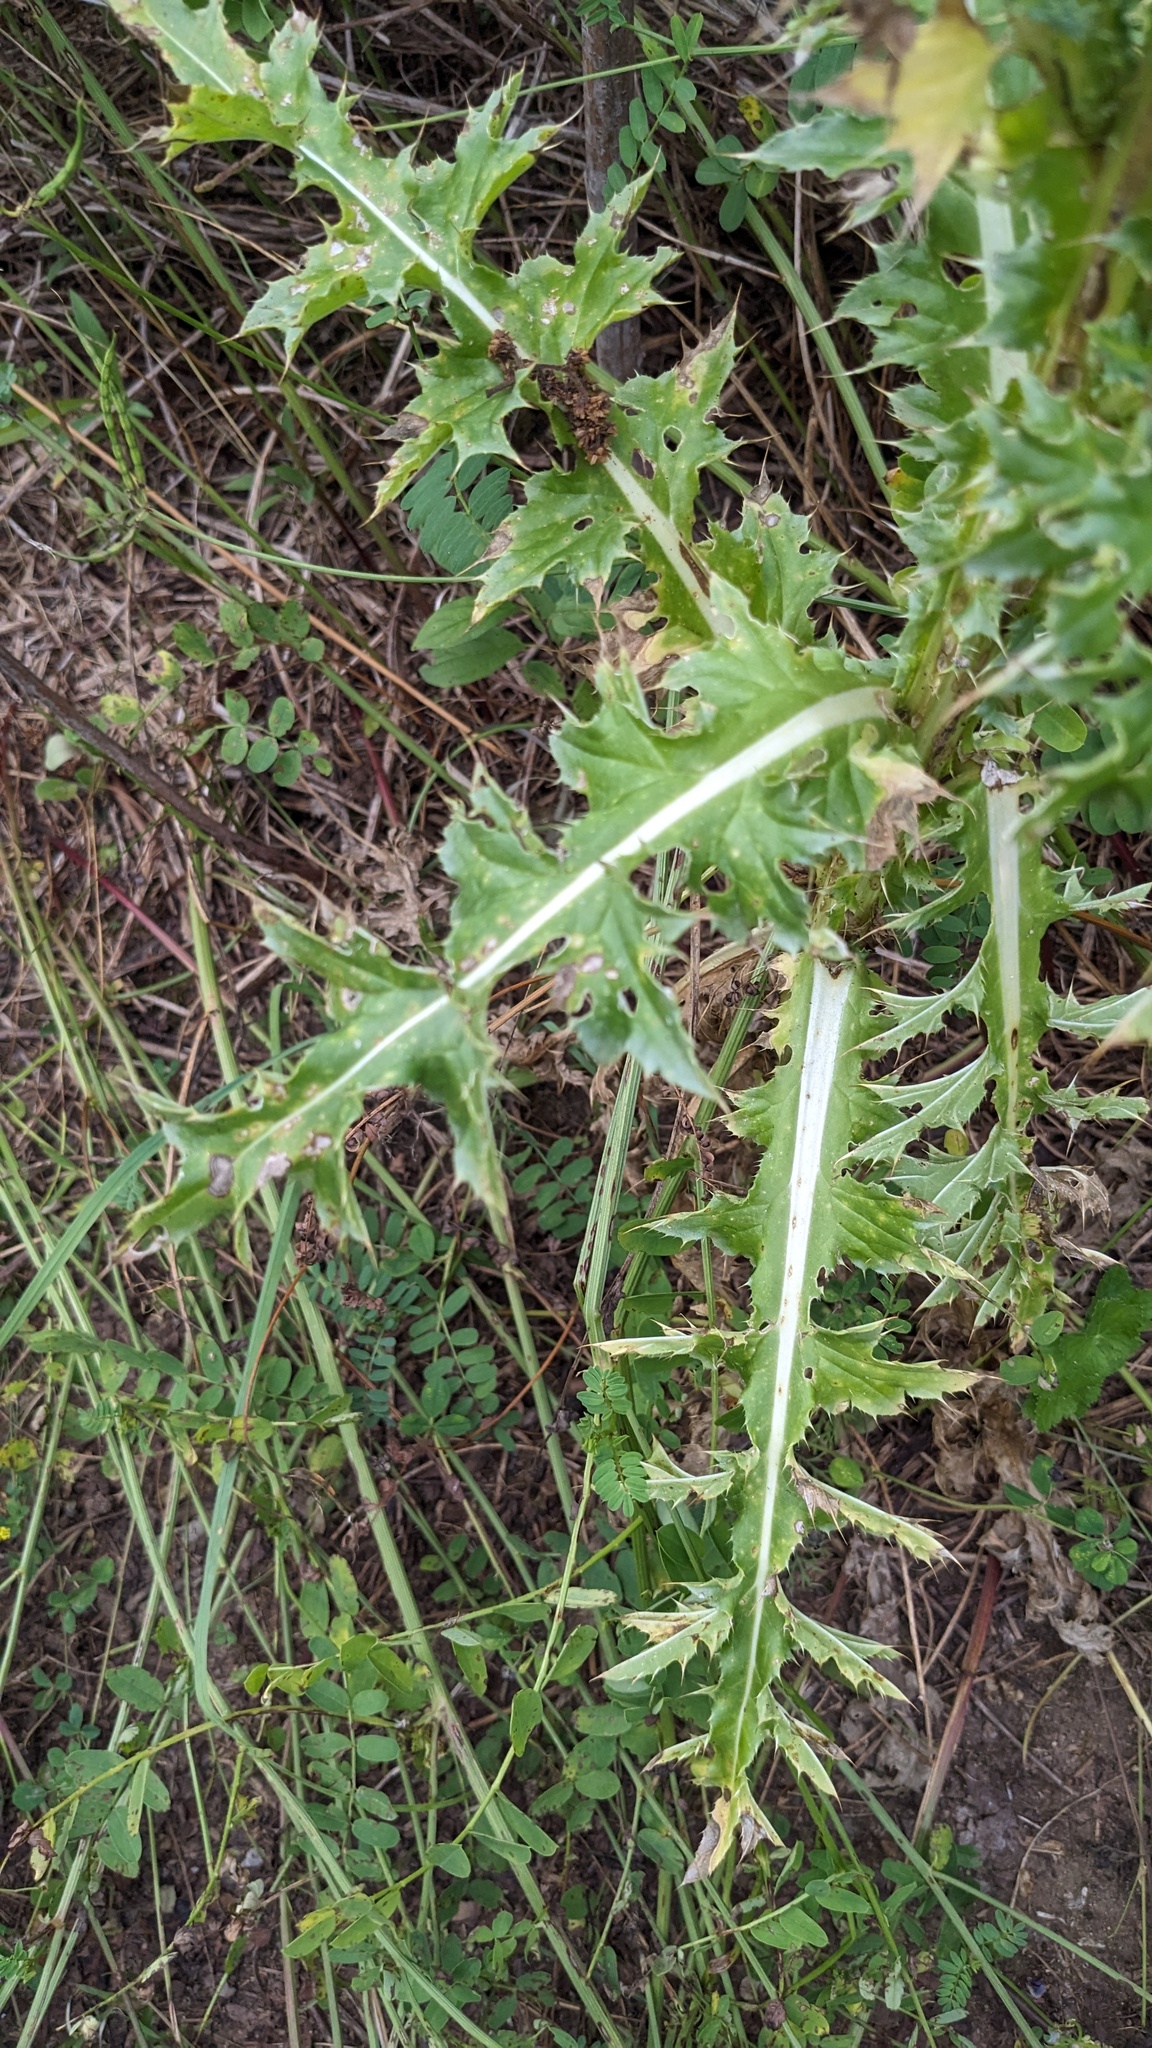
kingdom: Plantae
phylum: Tracheophyta
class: Magnoliopsida
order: Asterales
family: Asteraceae
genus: Carduus
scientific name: Carduus nutans
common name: Musk thistle
